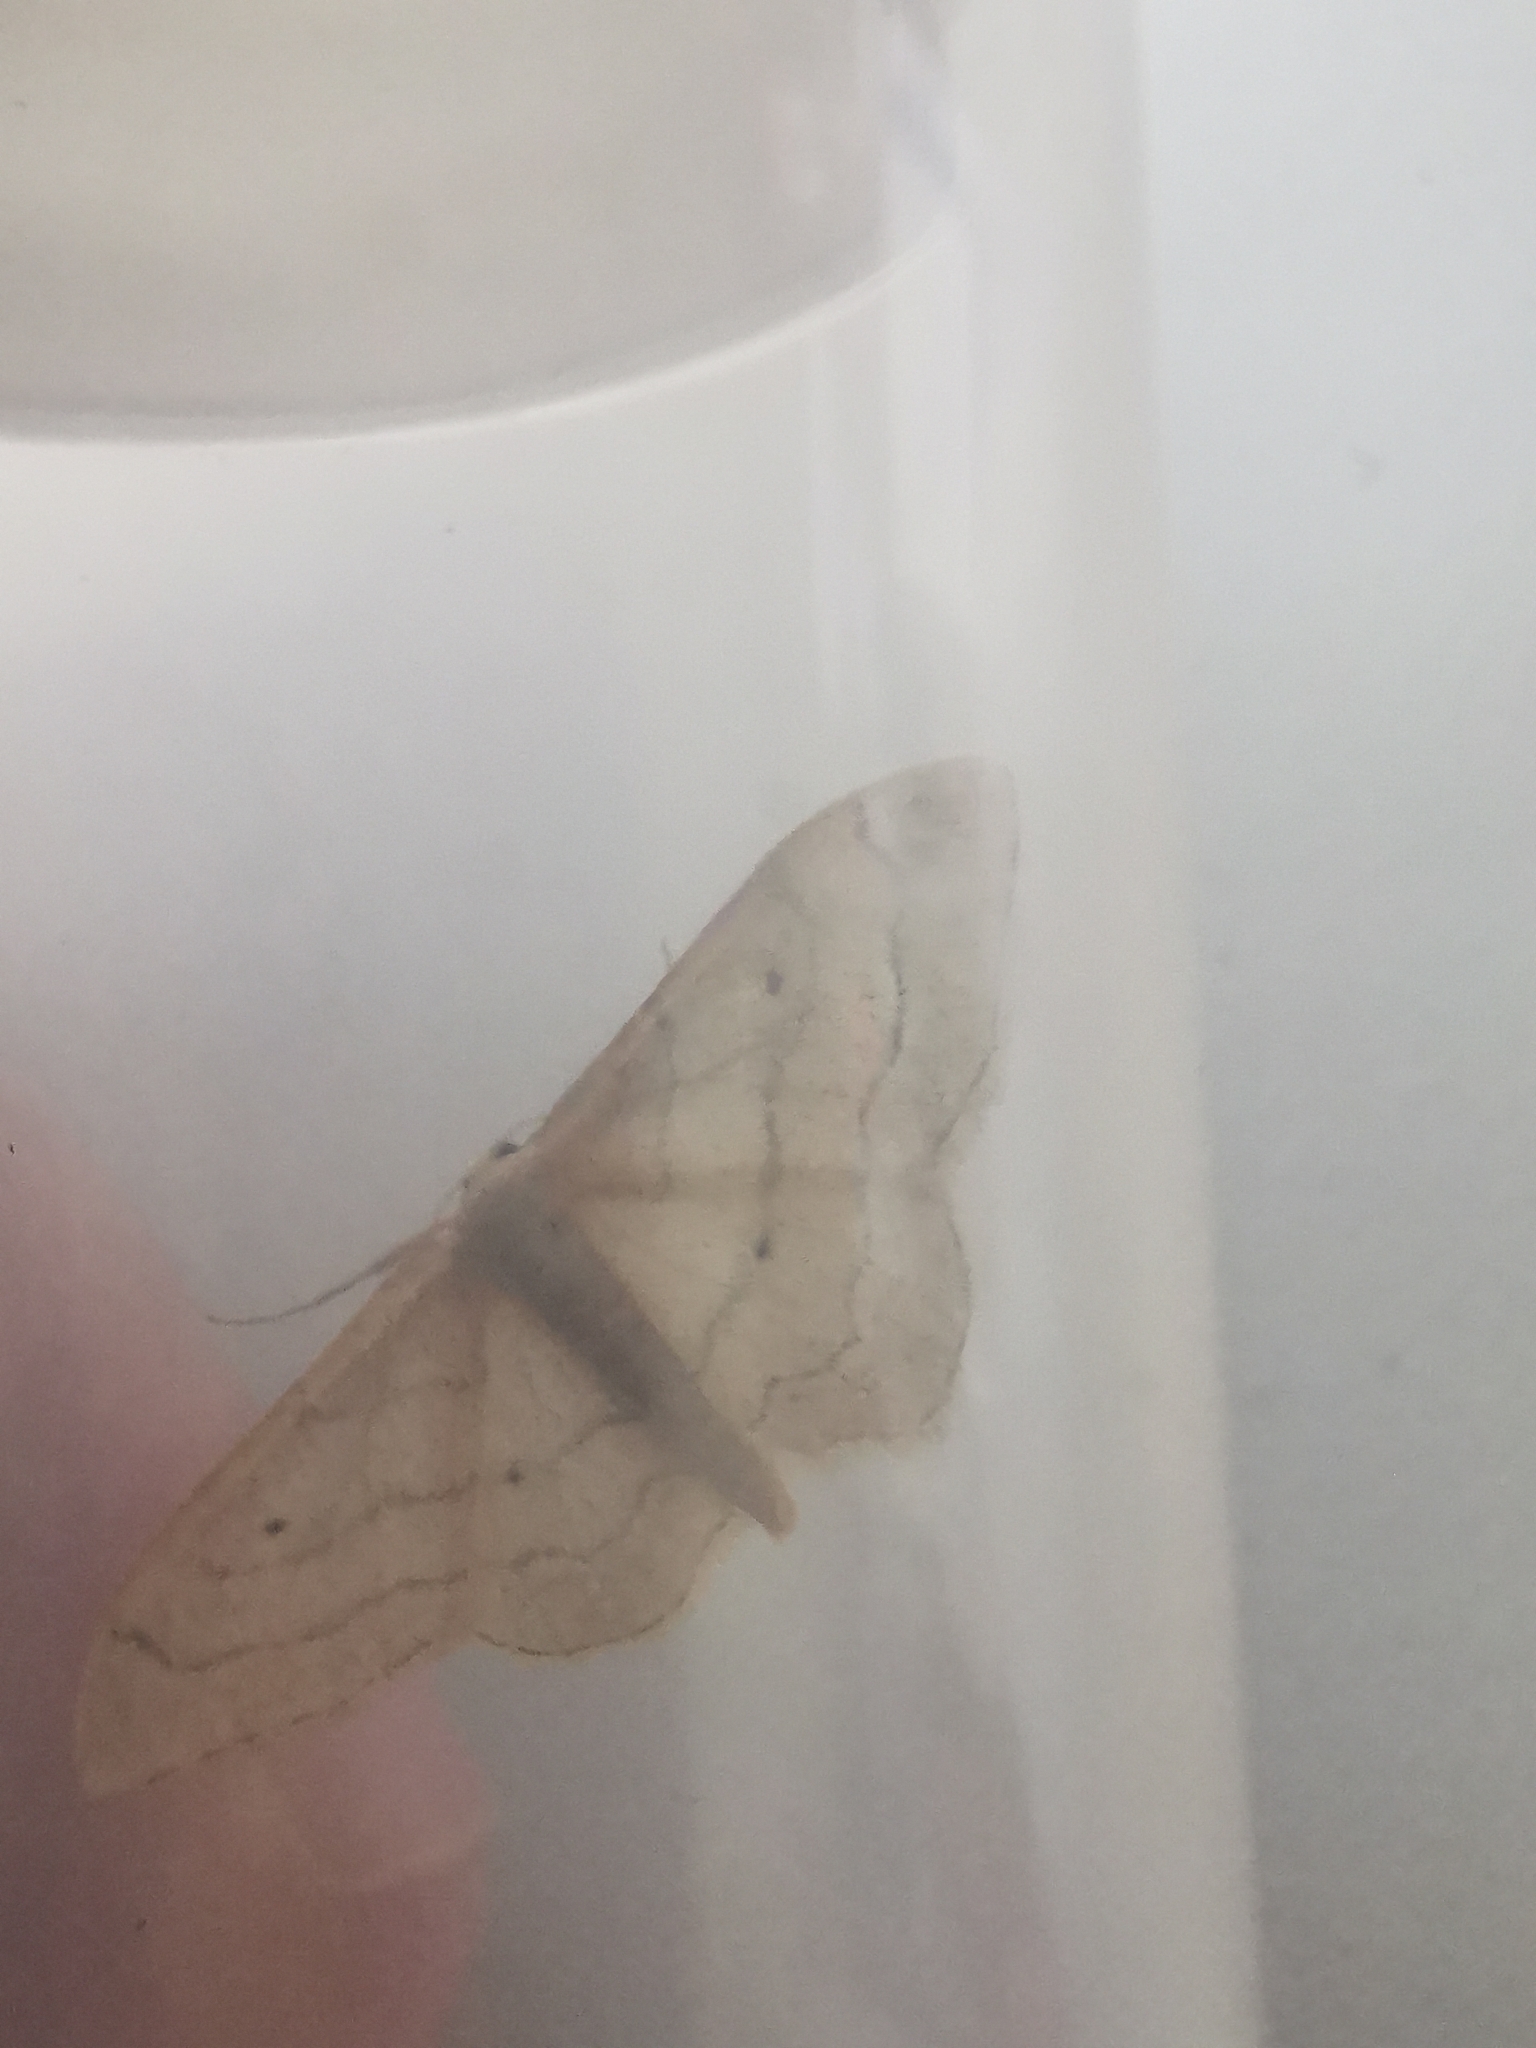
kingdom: Animalia
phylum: Arthropoda
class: Insecta
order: Lepidoptera
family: Geometridae
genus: Idaea
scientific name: Idaea aversata
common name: Riband wave
